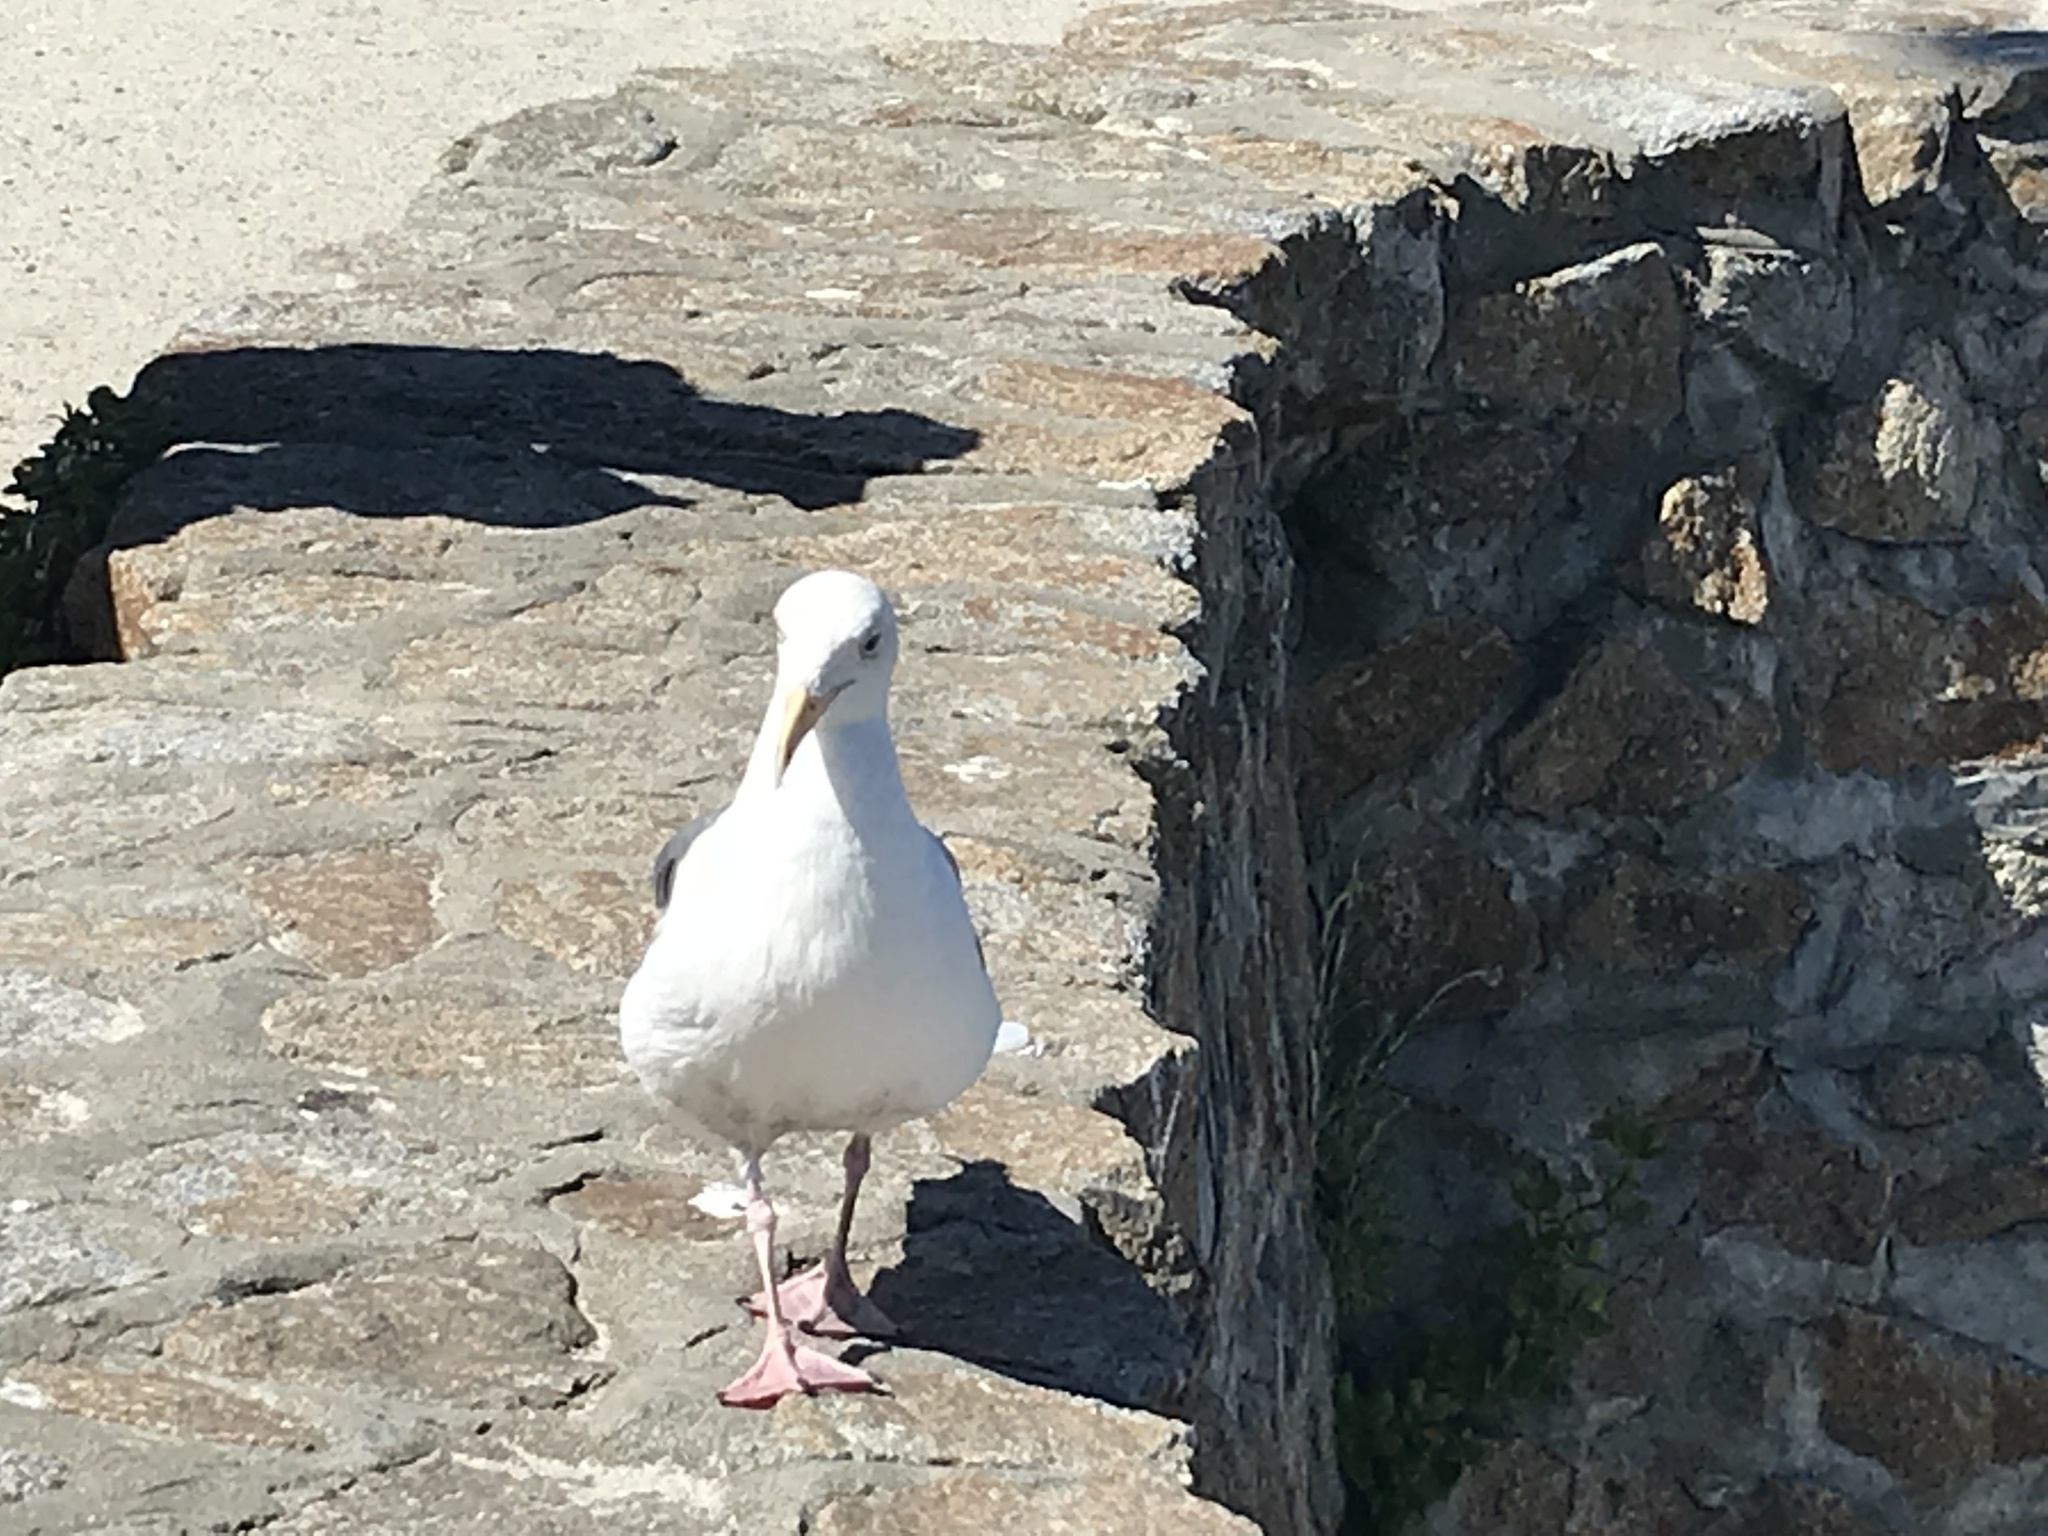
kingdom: Animalia
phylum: Chordata
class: Aves
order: Charadriiformes
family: Laridae
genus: Larus
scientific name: Larus occidentalis
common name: Western gull
